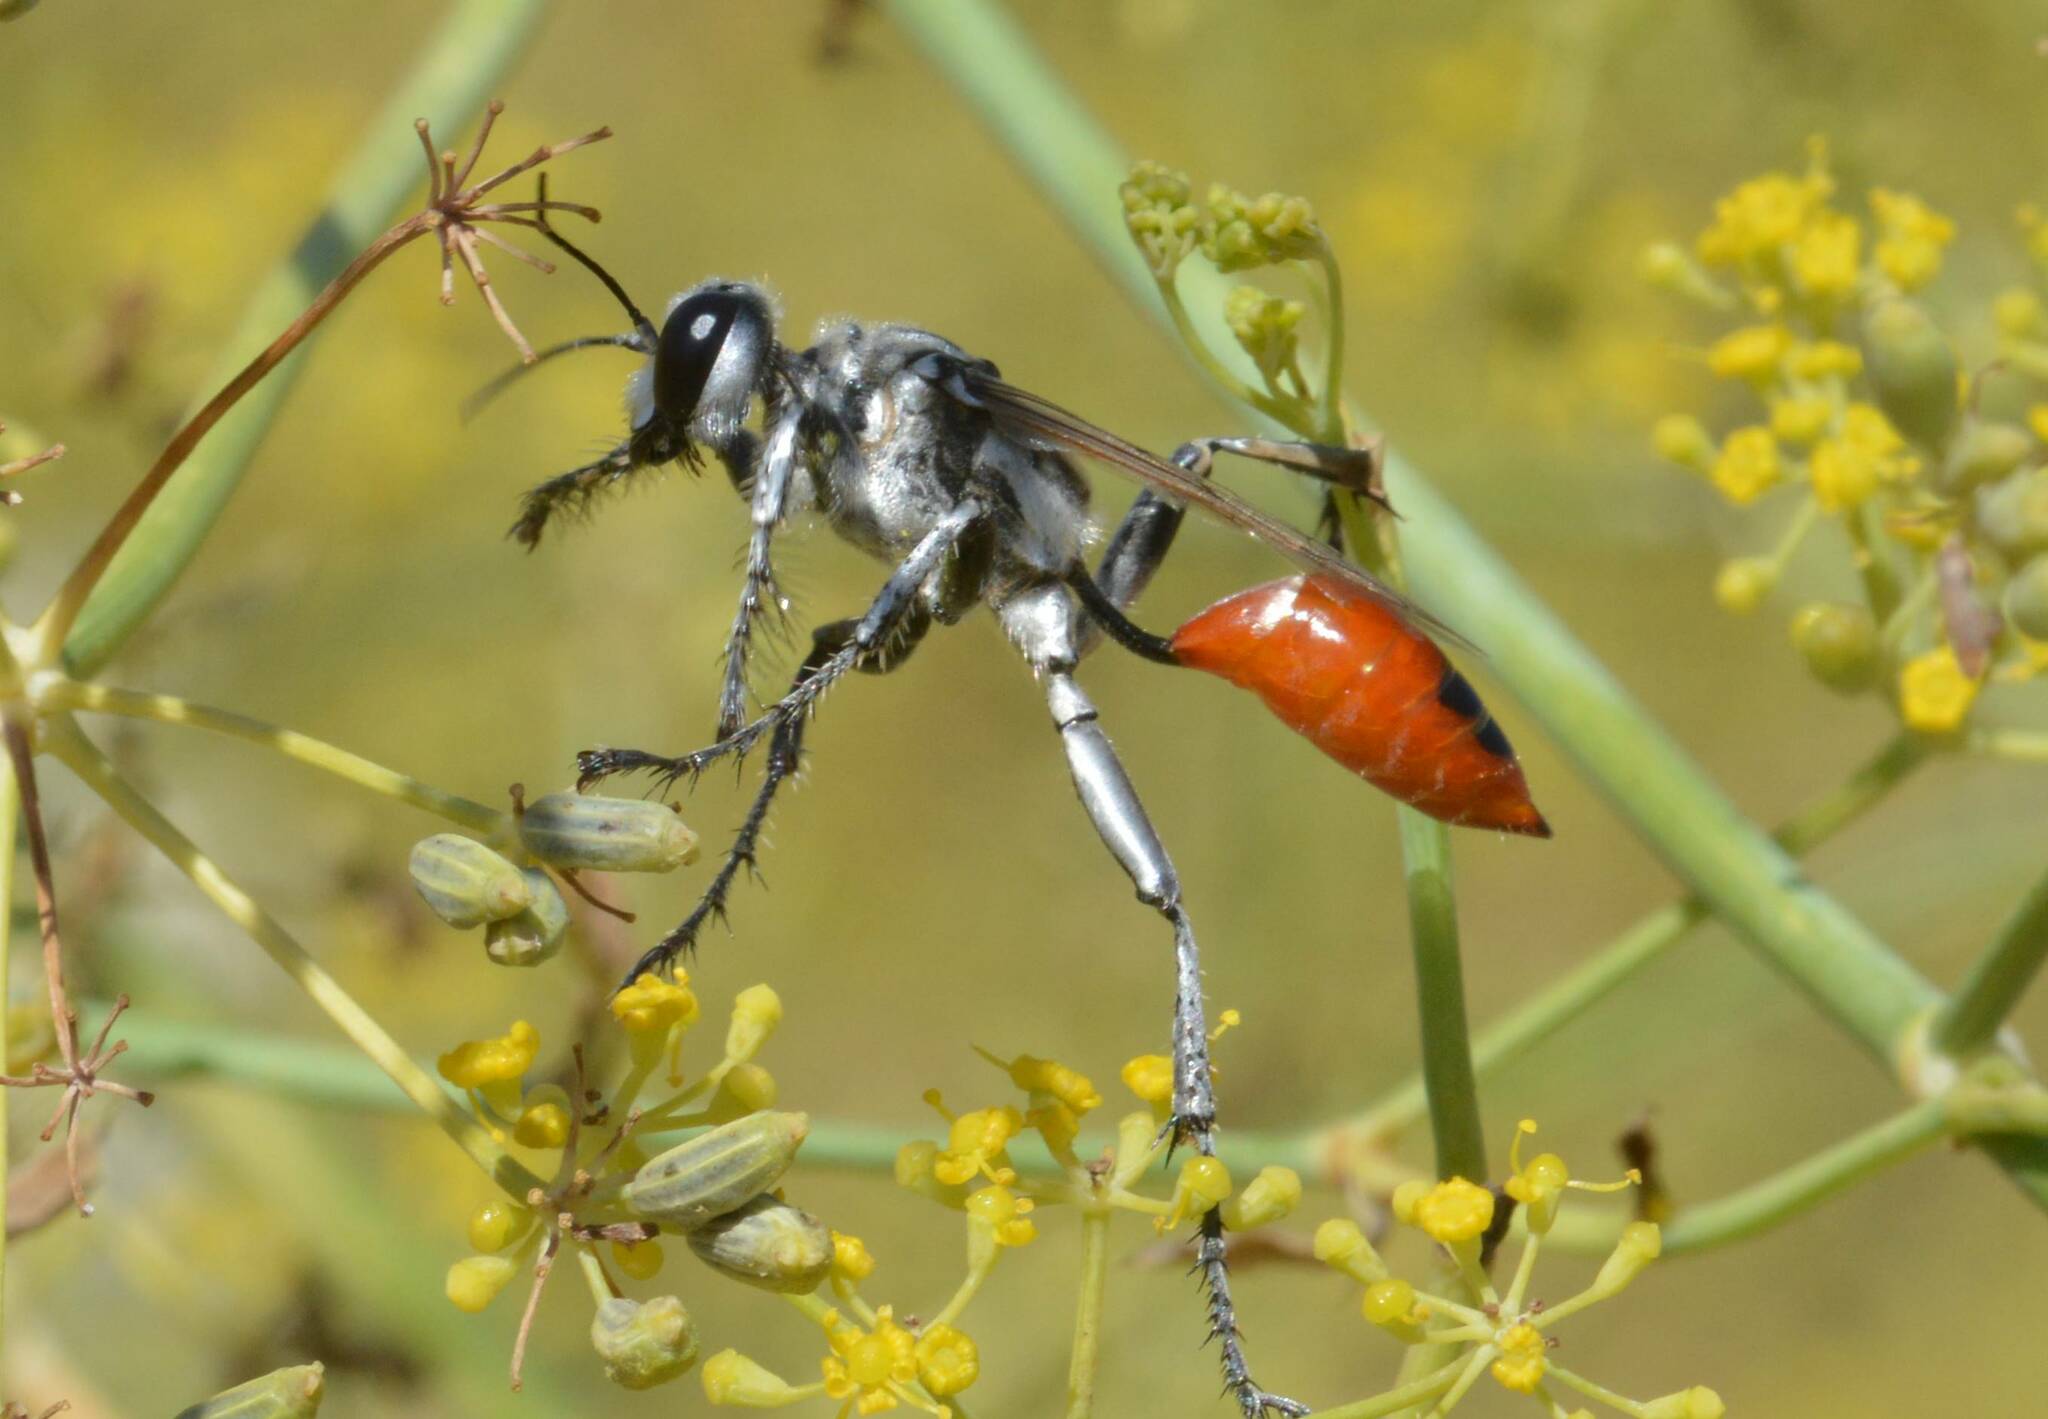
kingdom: Animalia
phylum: Arthropoda
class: Insecta
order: Hymenoptera
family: Sphecidae
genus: Prionyx
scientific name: Prionyx viduatus
